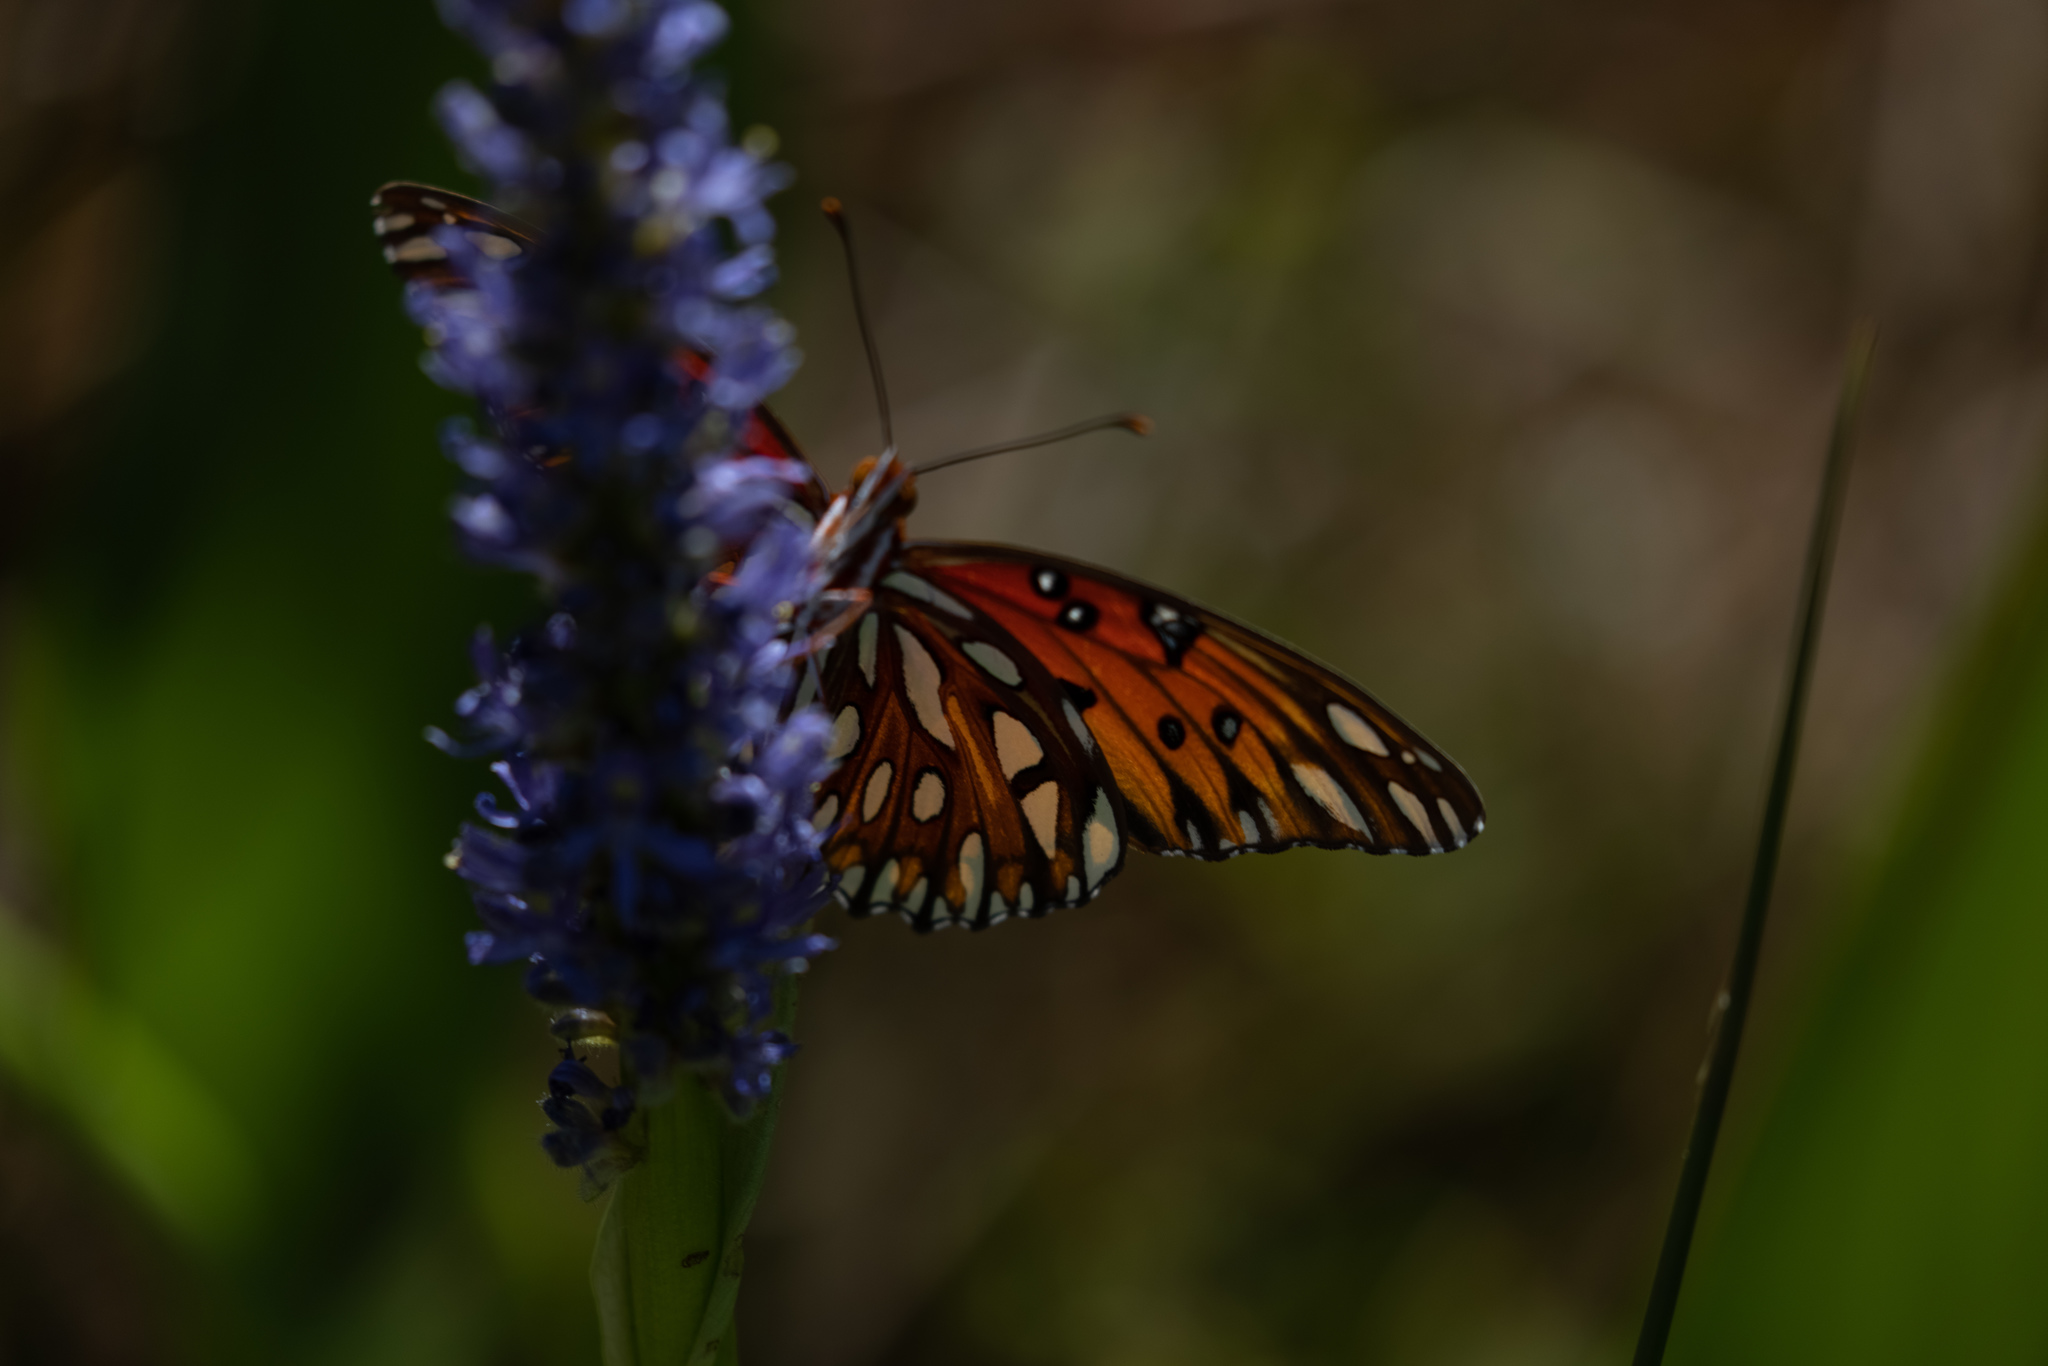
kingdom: Animalia
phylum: Arthropoda
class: Insecta
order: Lepidoptera
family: Nymphalidae
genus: Dione
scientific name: Dione vanillae
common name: Gulf fritillary
